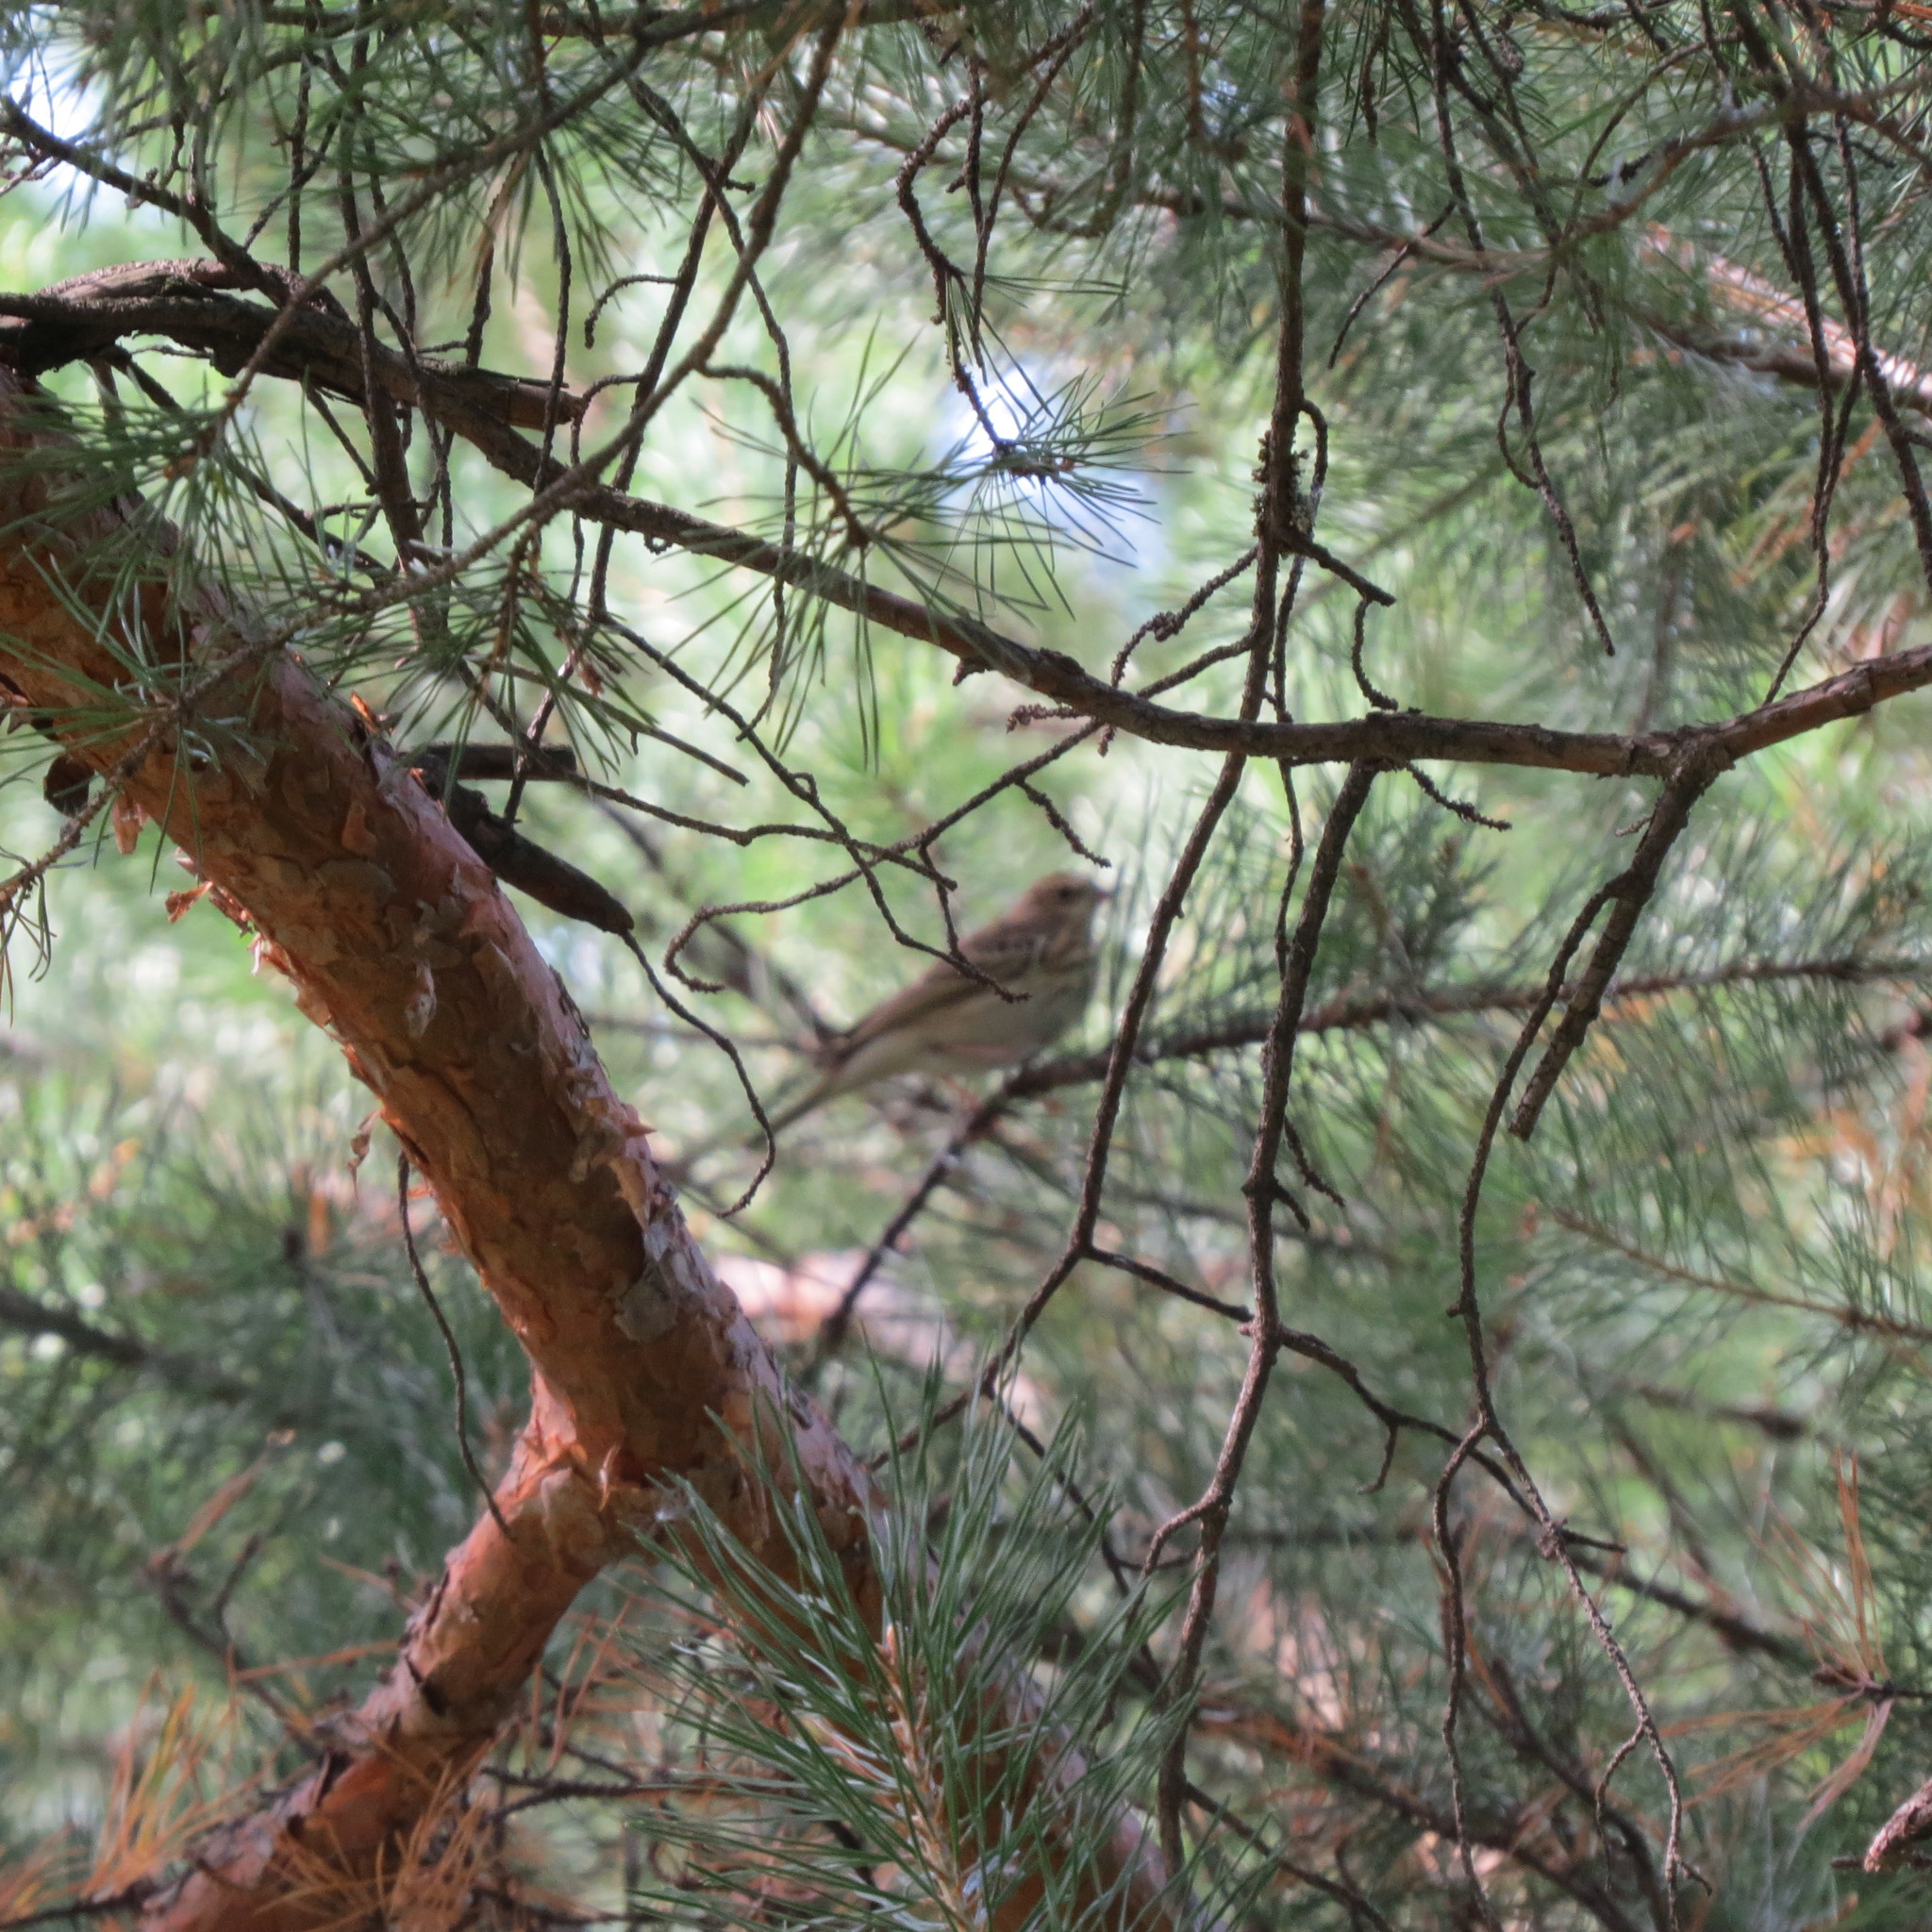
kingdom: Animalia
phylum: Chordata
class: Aves
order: Passeriformes
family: Motacillidae
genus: Anthus
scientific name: Anthus trivialis
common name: Tree pipit
